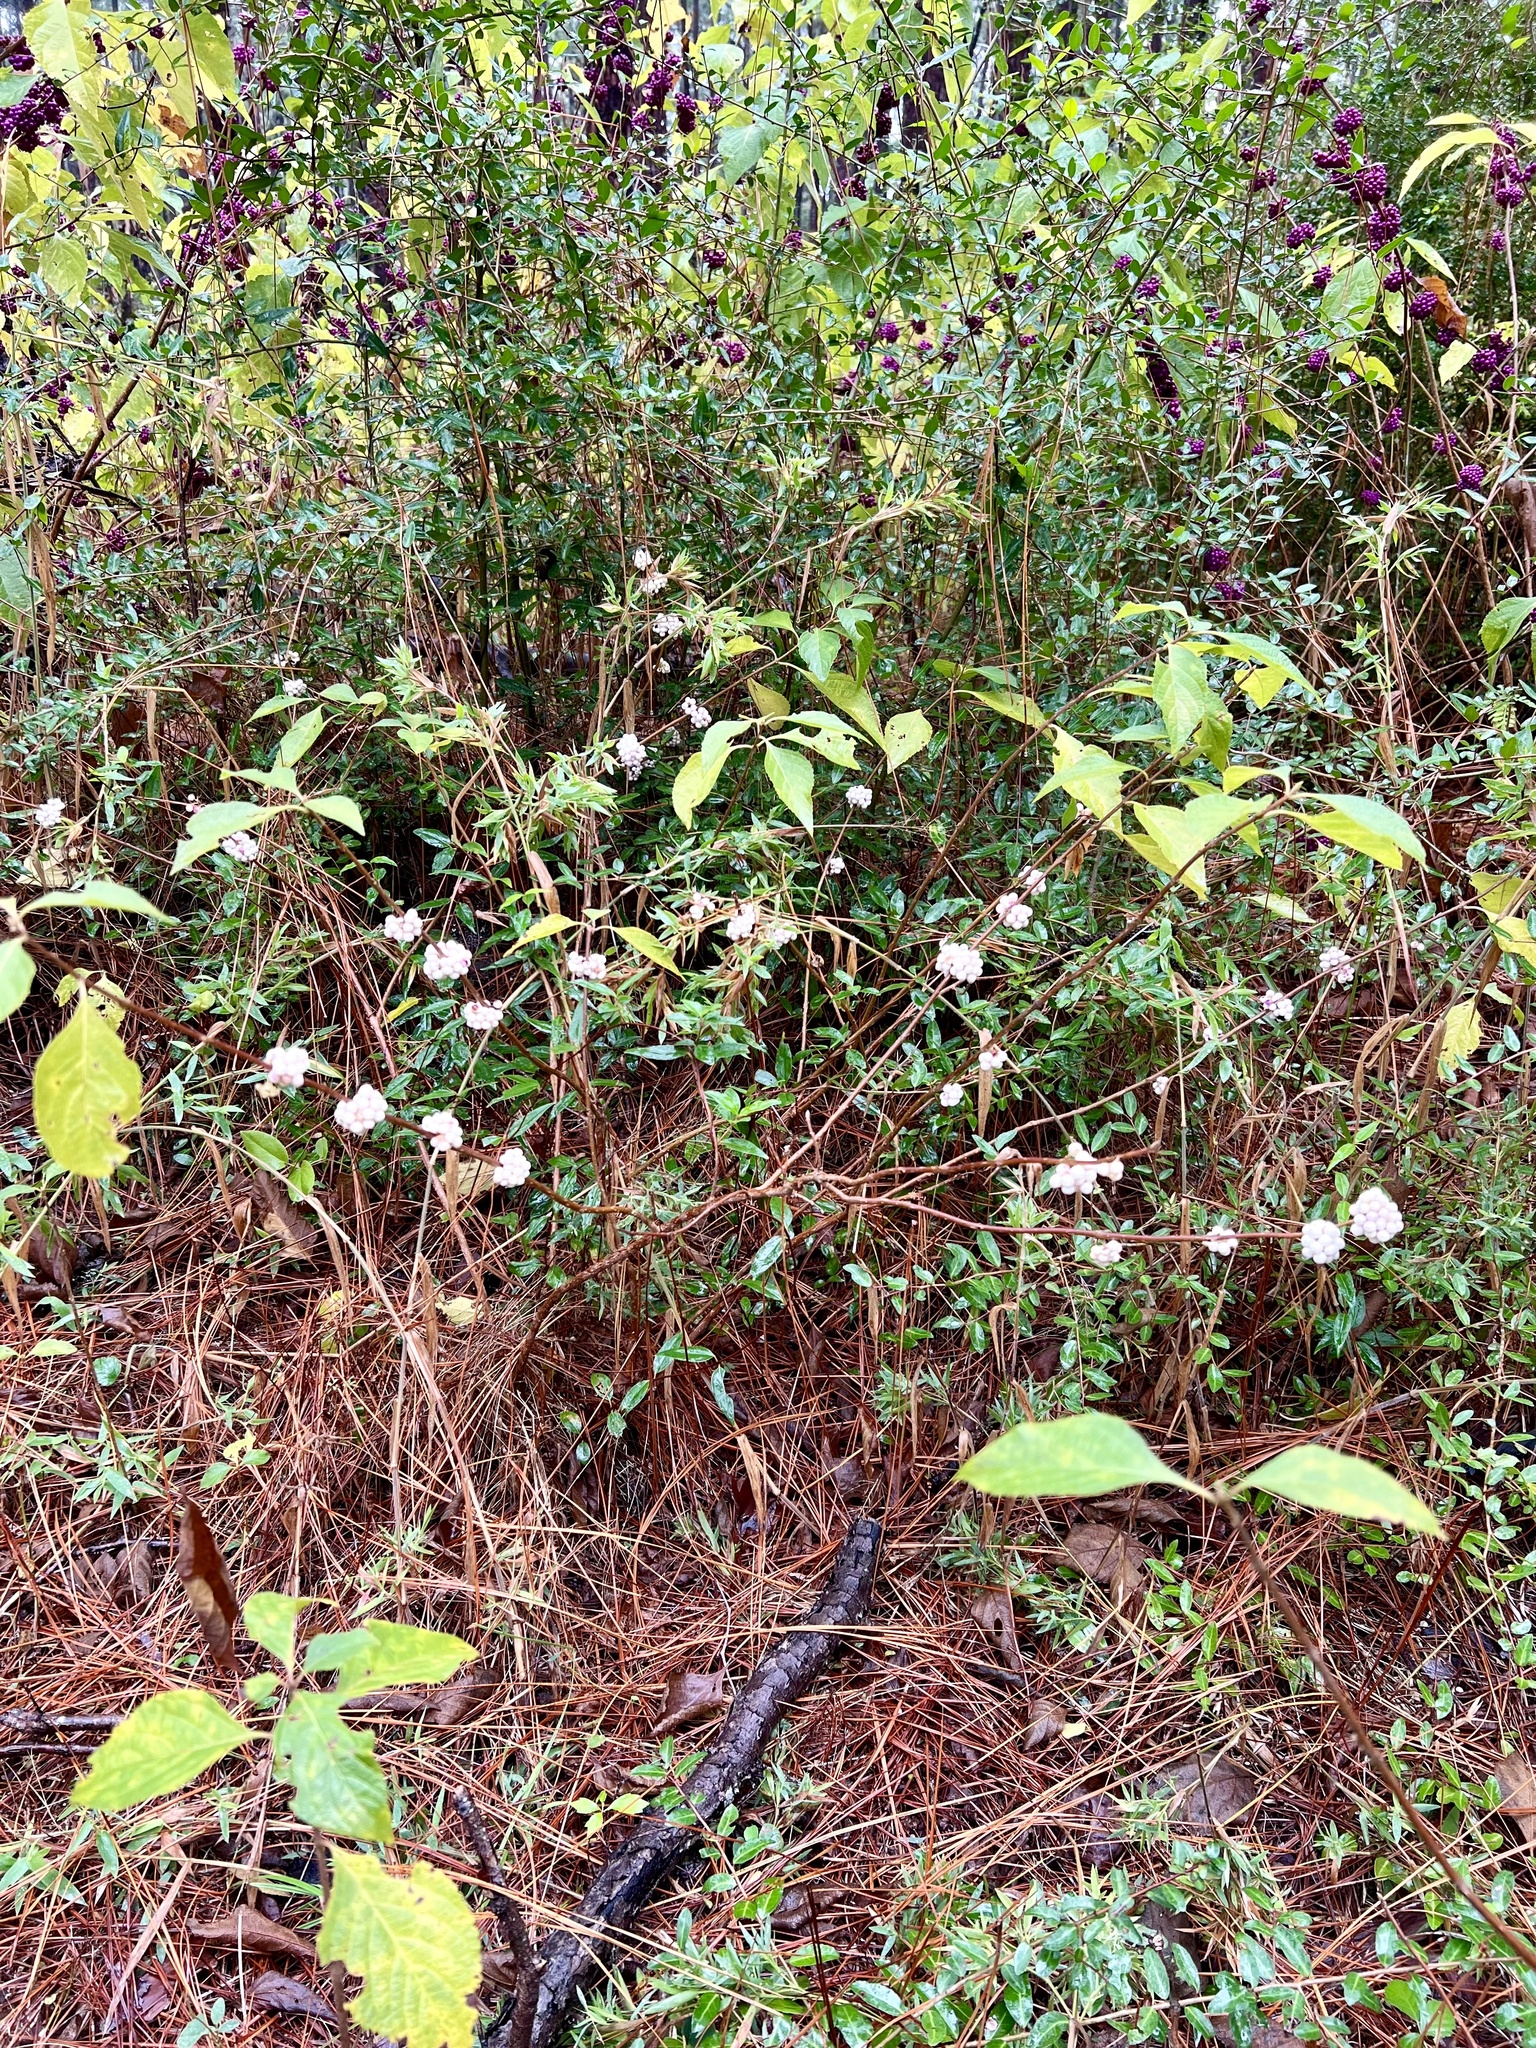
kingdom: Plantae
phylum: Tracheophyta
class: Magnoliopsida
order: Lamiales
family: Lamiaceae
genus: Callicarpa
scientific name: Callicarpa americana
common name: American beautyberry
